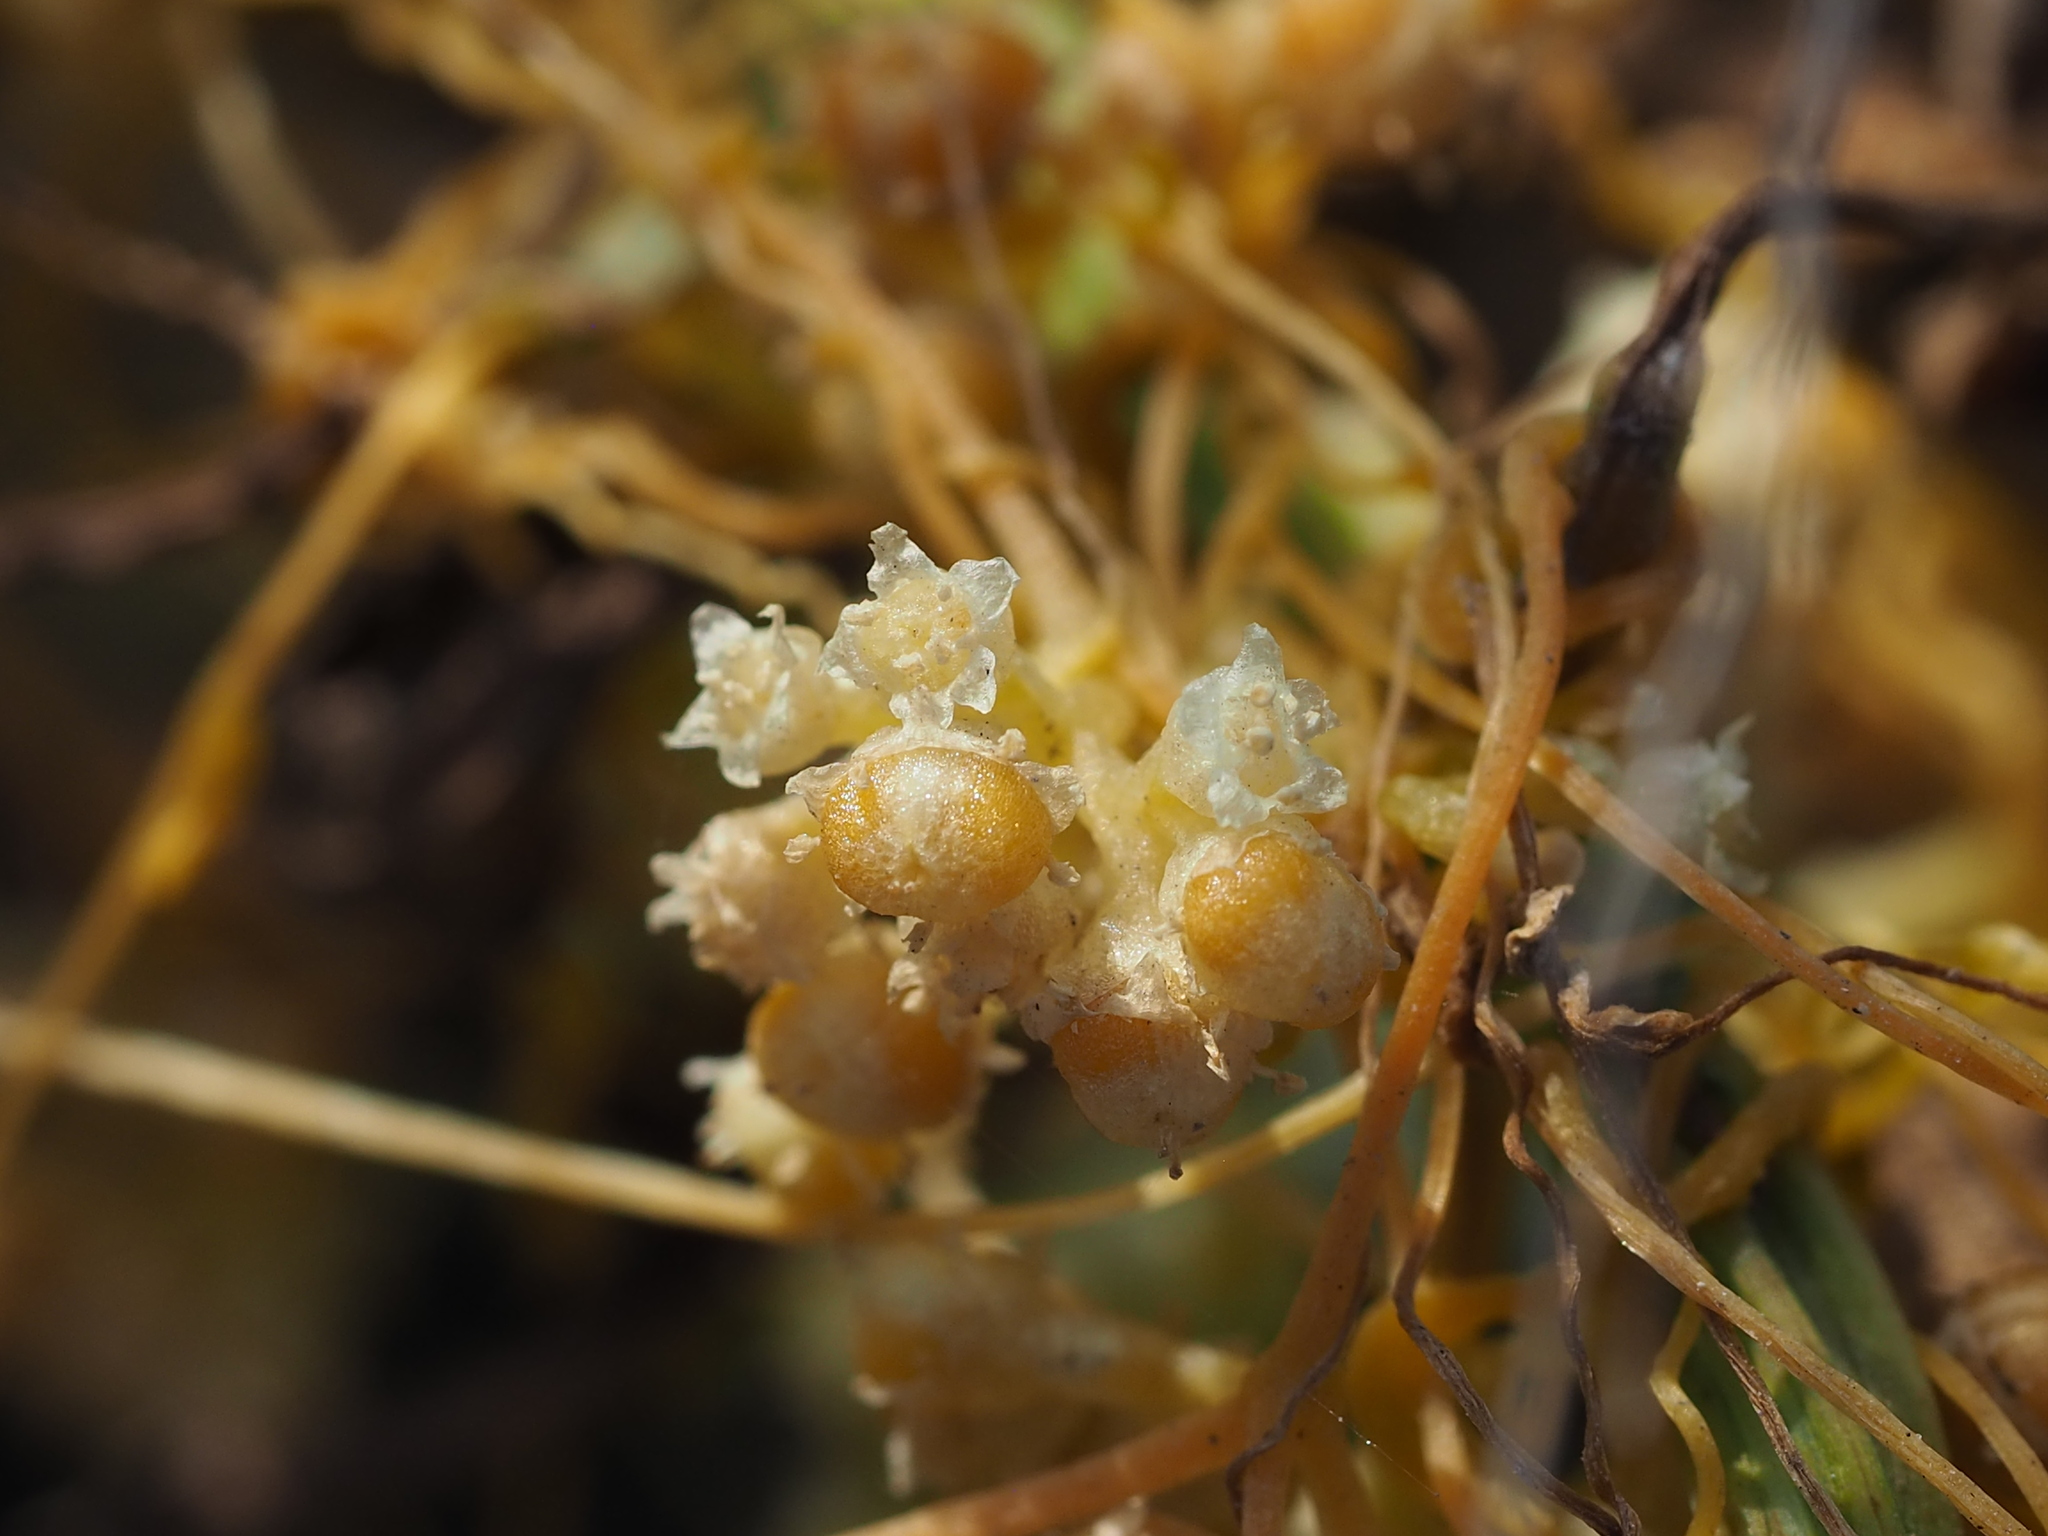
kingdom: Plantae
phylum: Tracheophyta
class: Magnoliopsida
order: Solanales
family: Convolvulaceae
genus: Cuscuta
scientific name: Cuscuta campestris
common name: Yellow dodder
